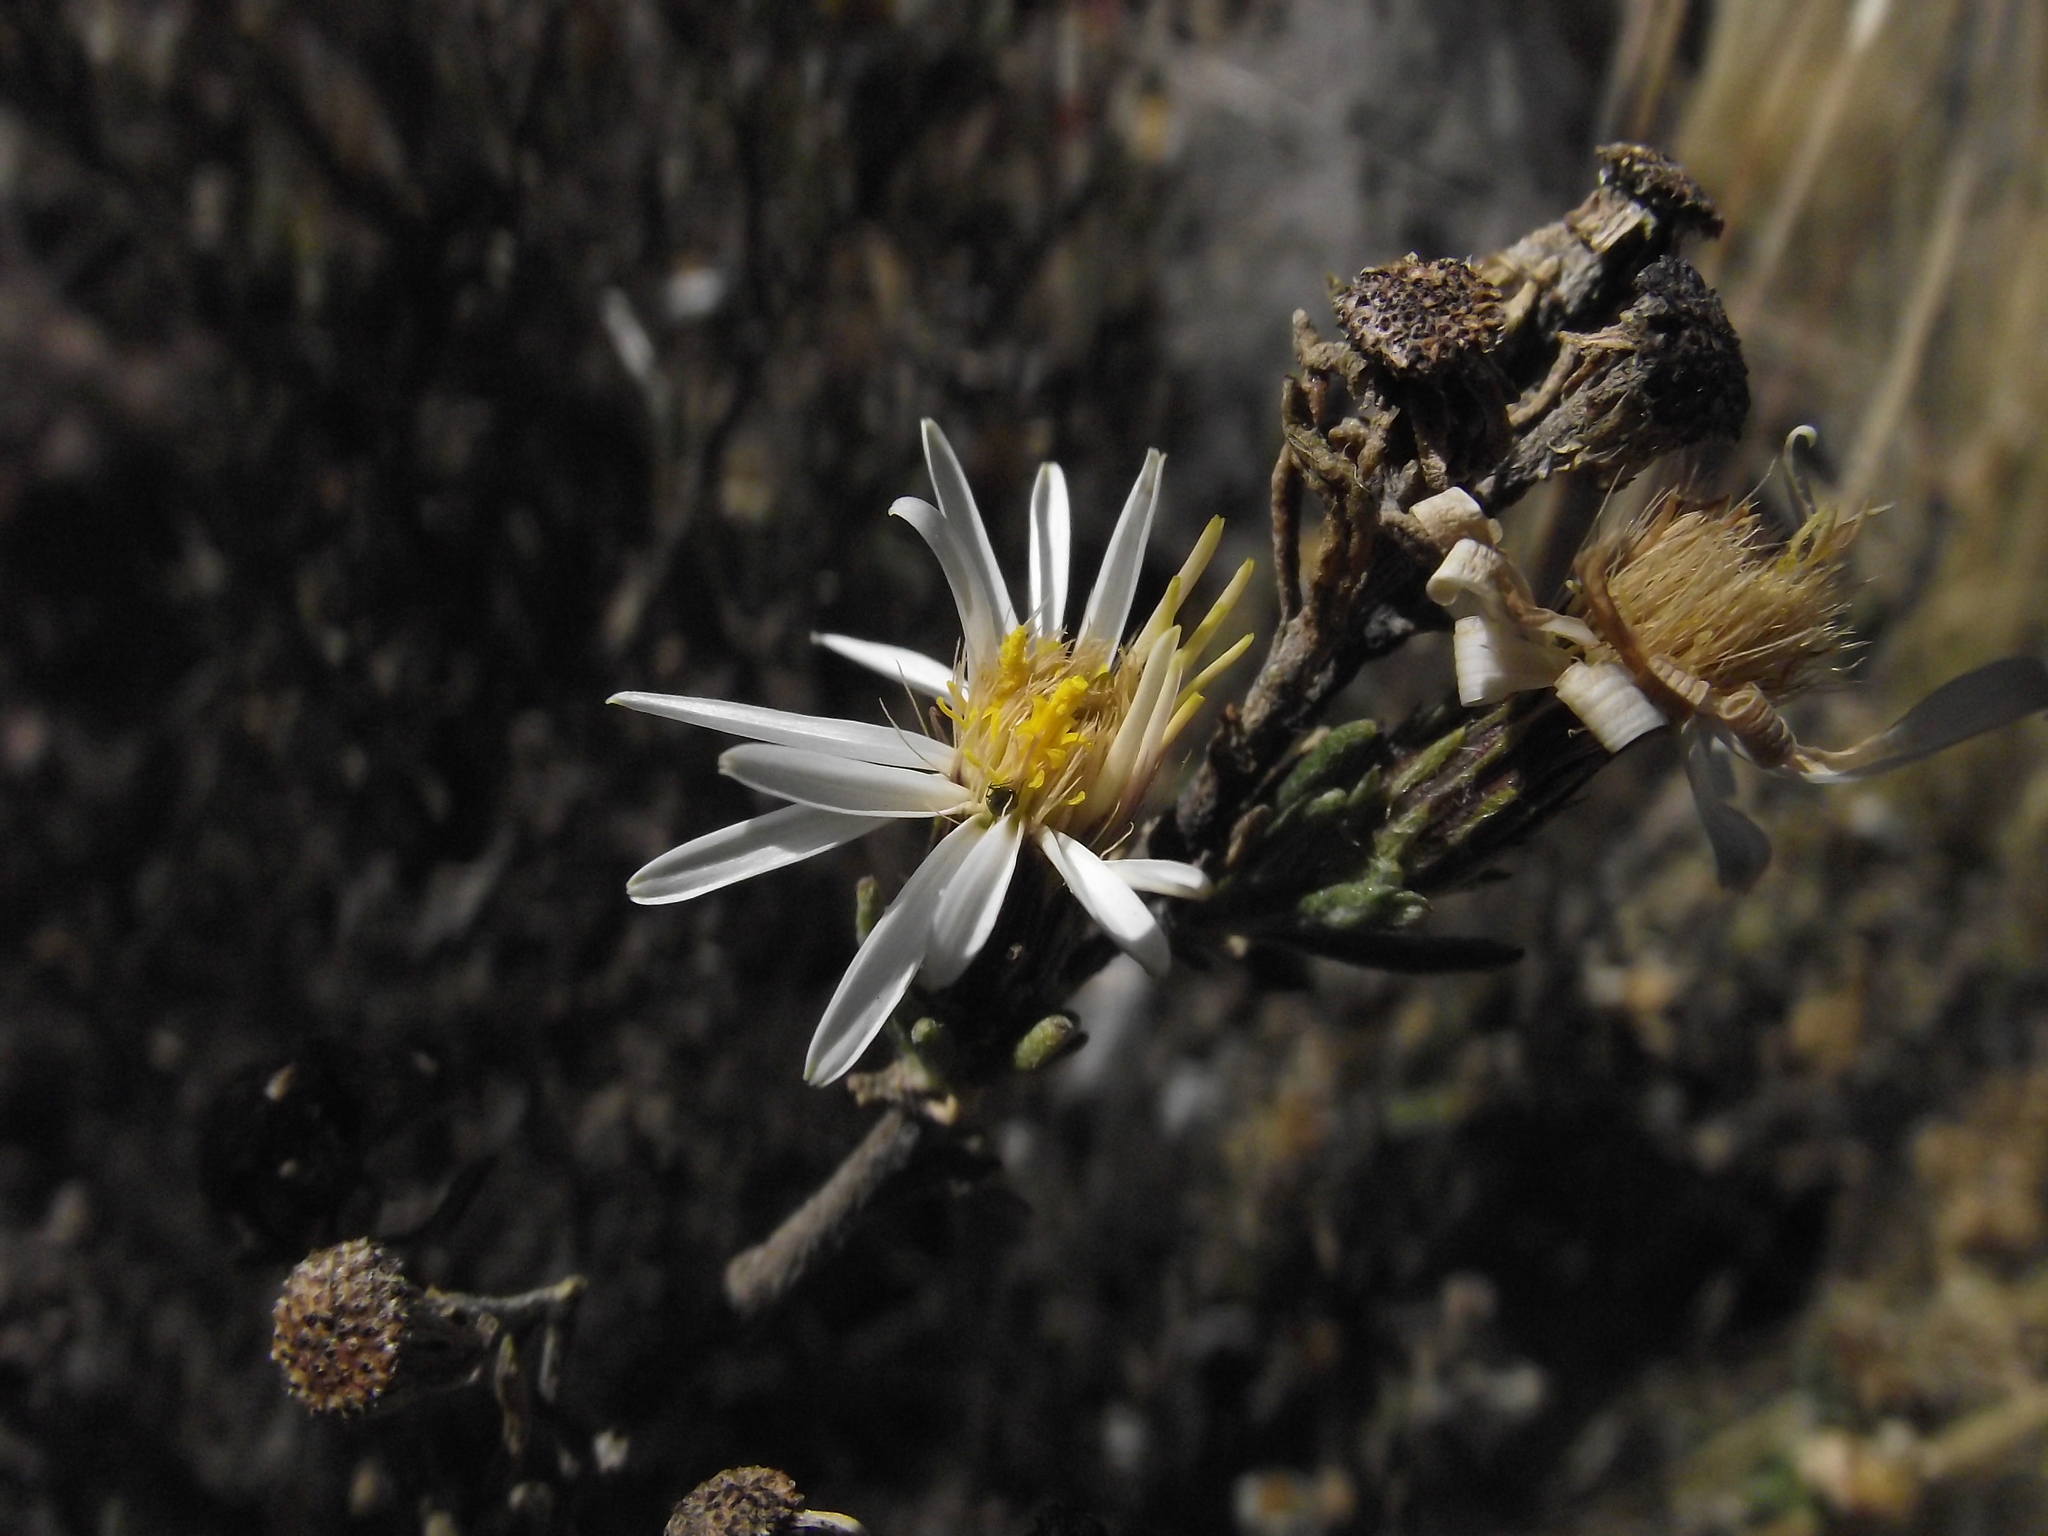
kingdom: Plantae
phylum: Tracheophyta
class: Magnoliopsida
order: Asterales
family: Asteraceae
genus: Diplostephium
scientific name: Diplostephium meyenii
